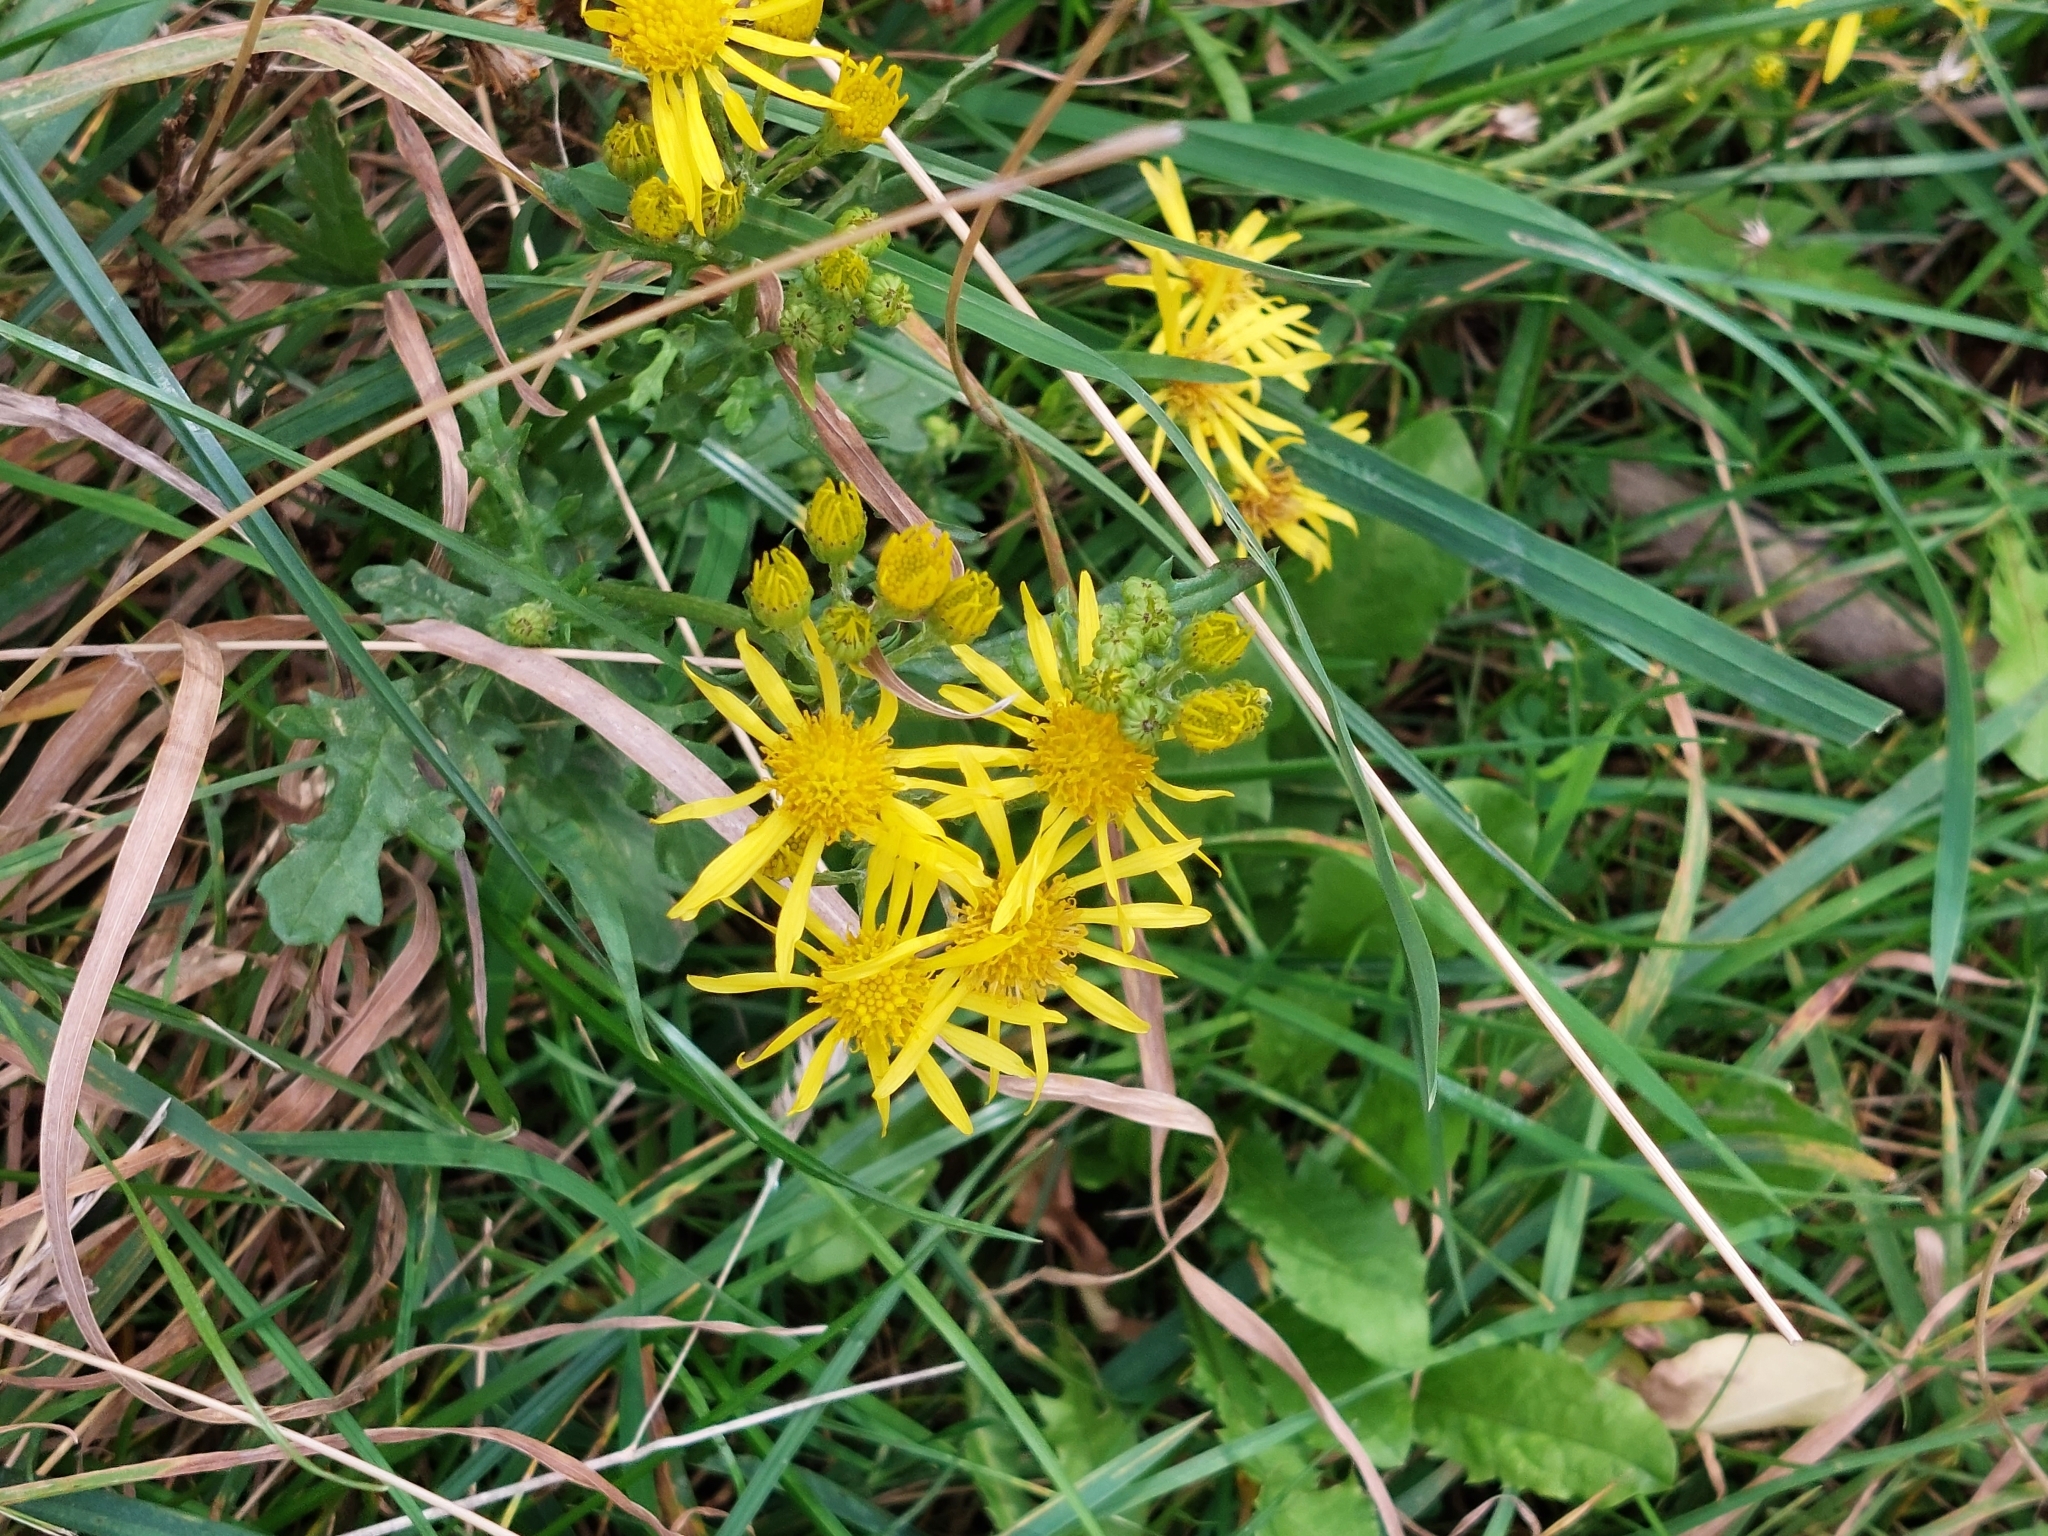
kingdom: Plantae
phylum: Tracheophyta
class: Magnoliopsida
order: Asterales
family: Asteraceae
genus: Jacobaea
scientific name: Jacobaea vulgaris
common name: Stinking willie
